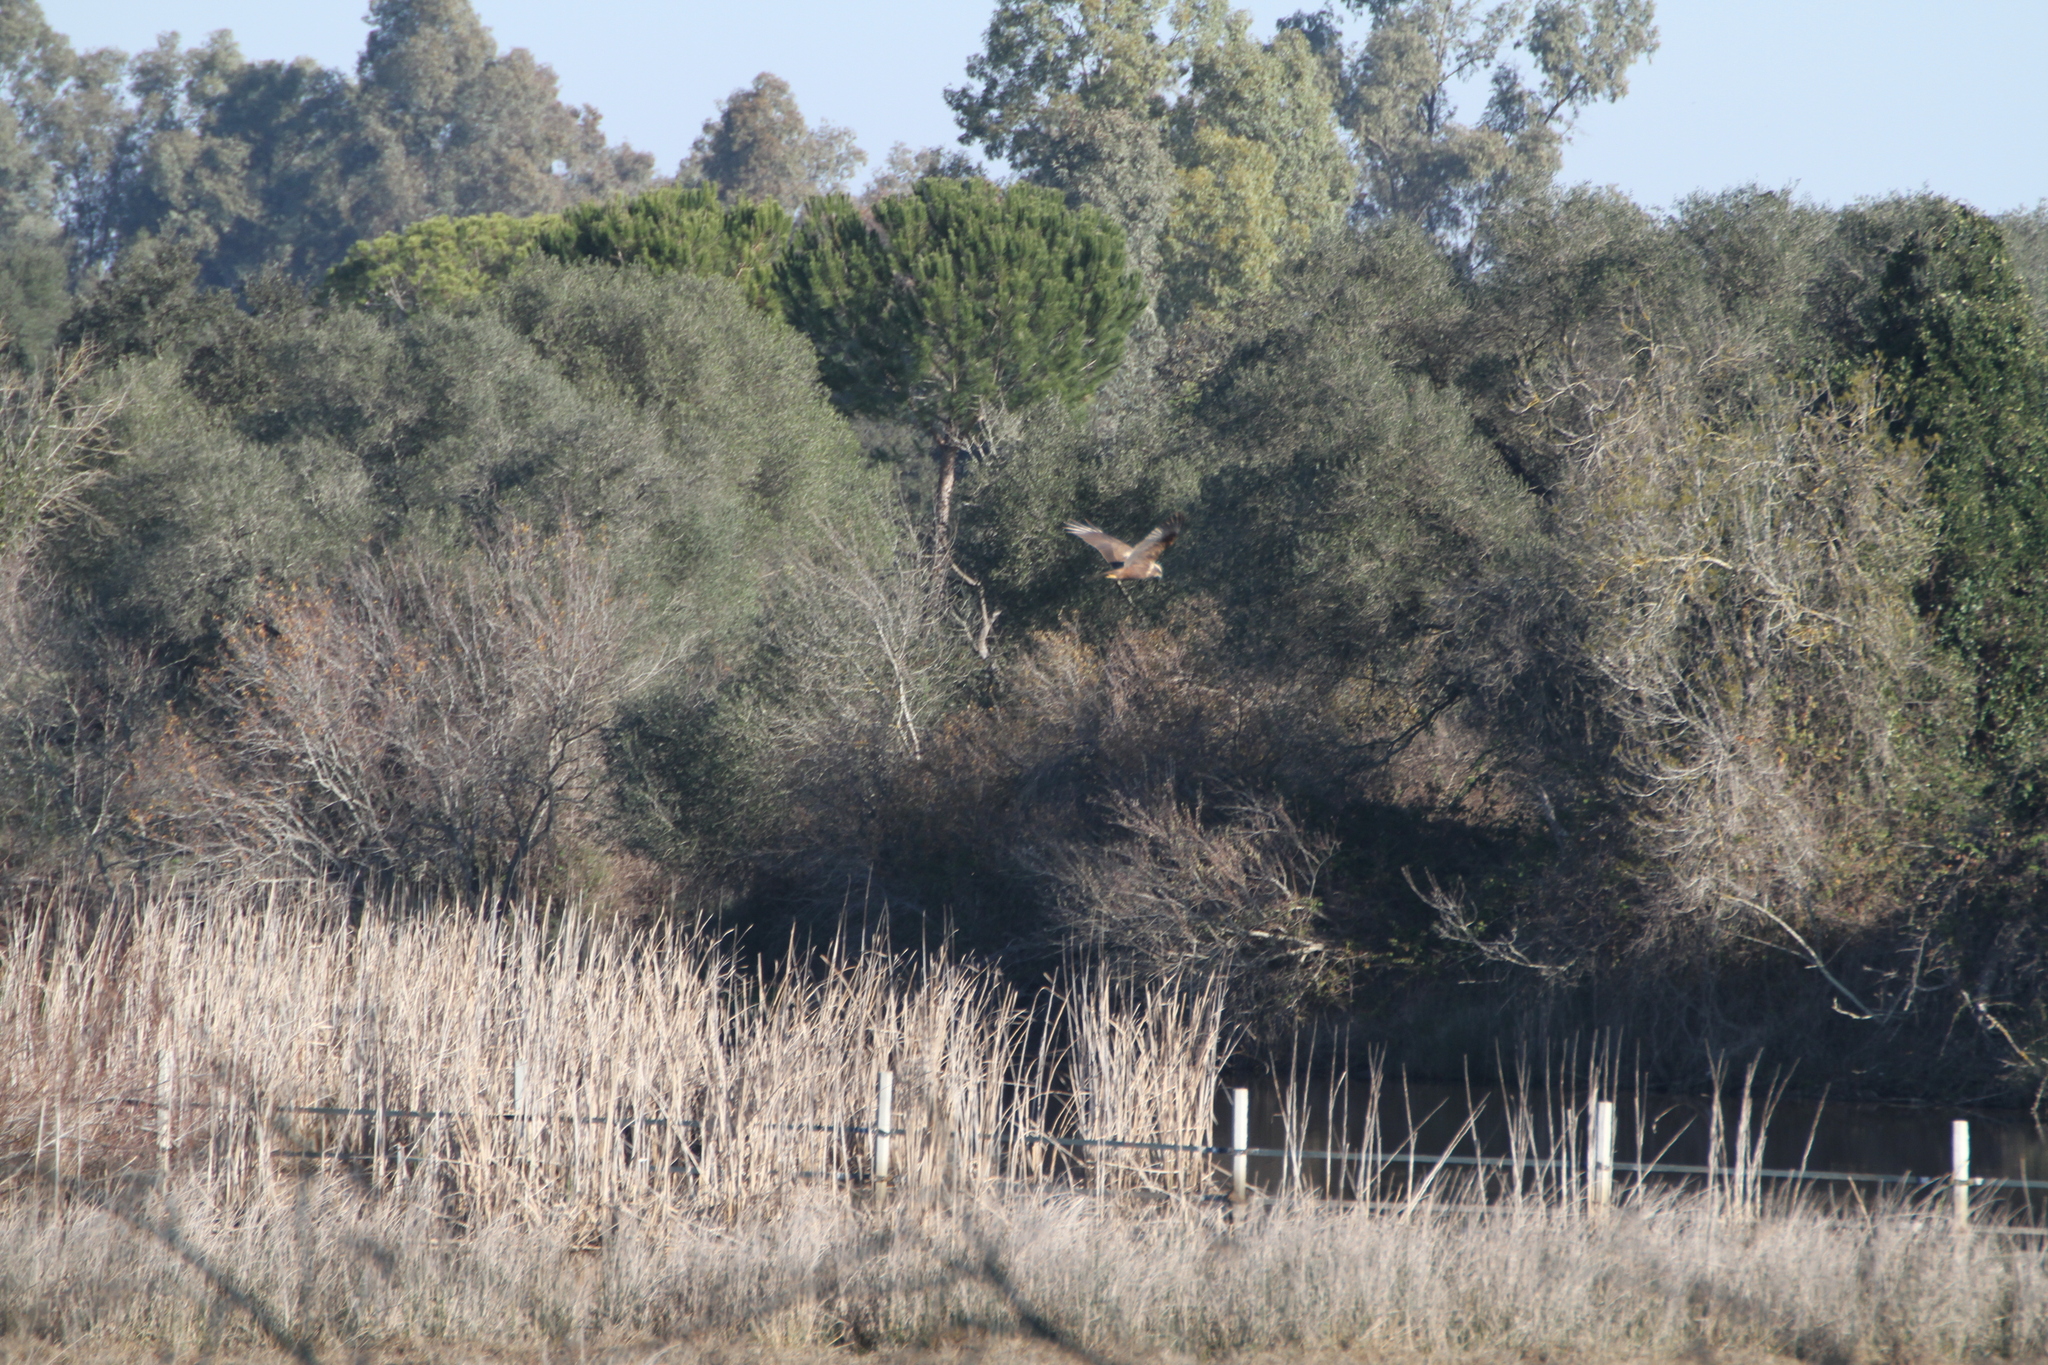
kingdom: Animalia
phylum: Chordata
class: Aves
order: Accipitriformes
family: Accipitridae
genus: Circus
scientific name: Circus aeruginosus
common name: Western marsh harrier
